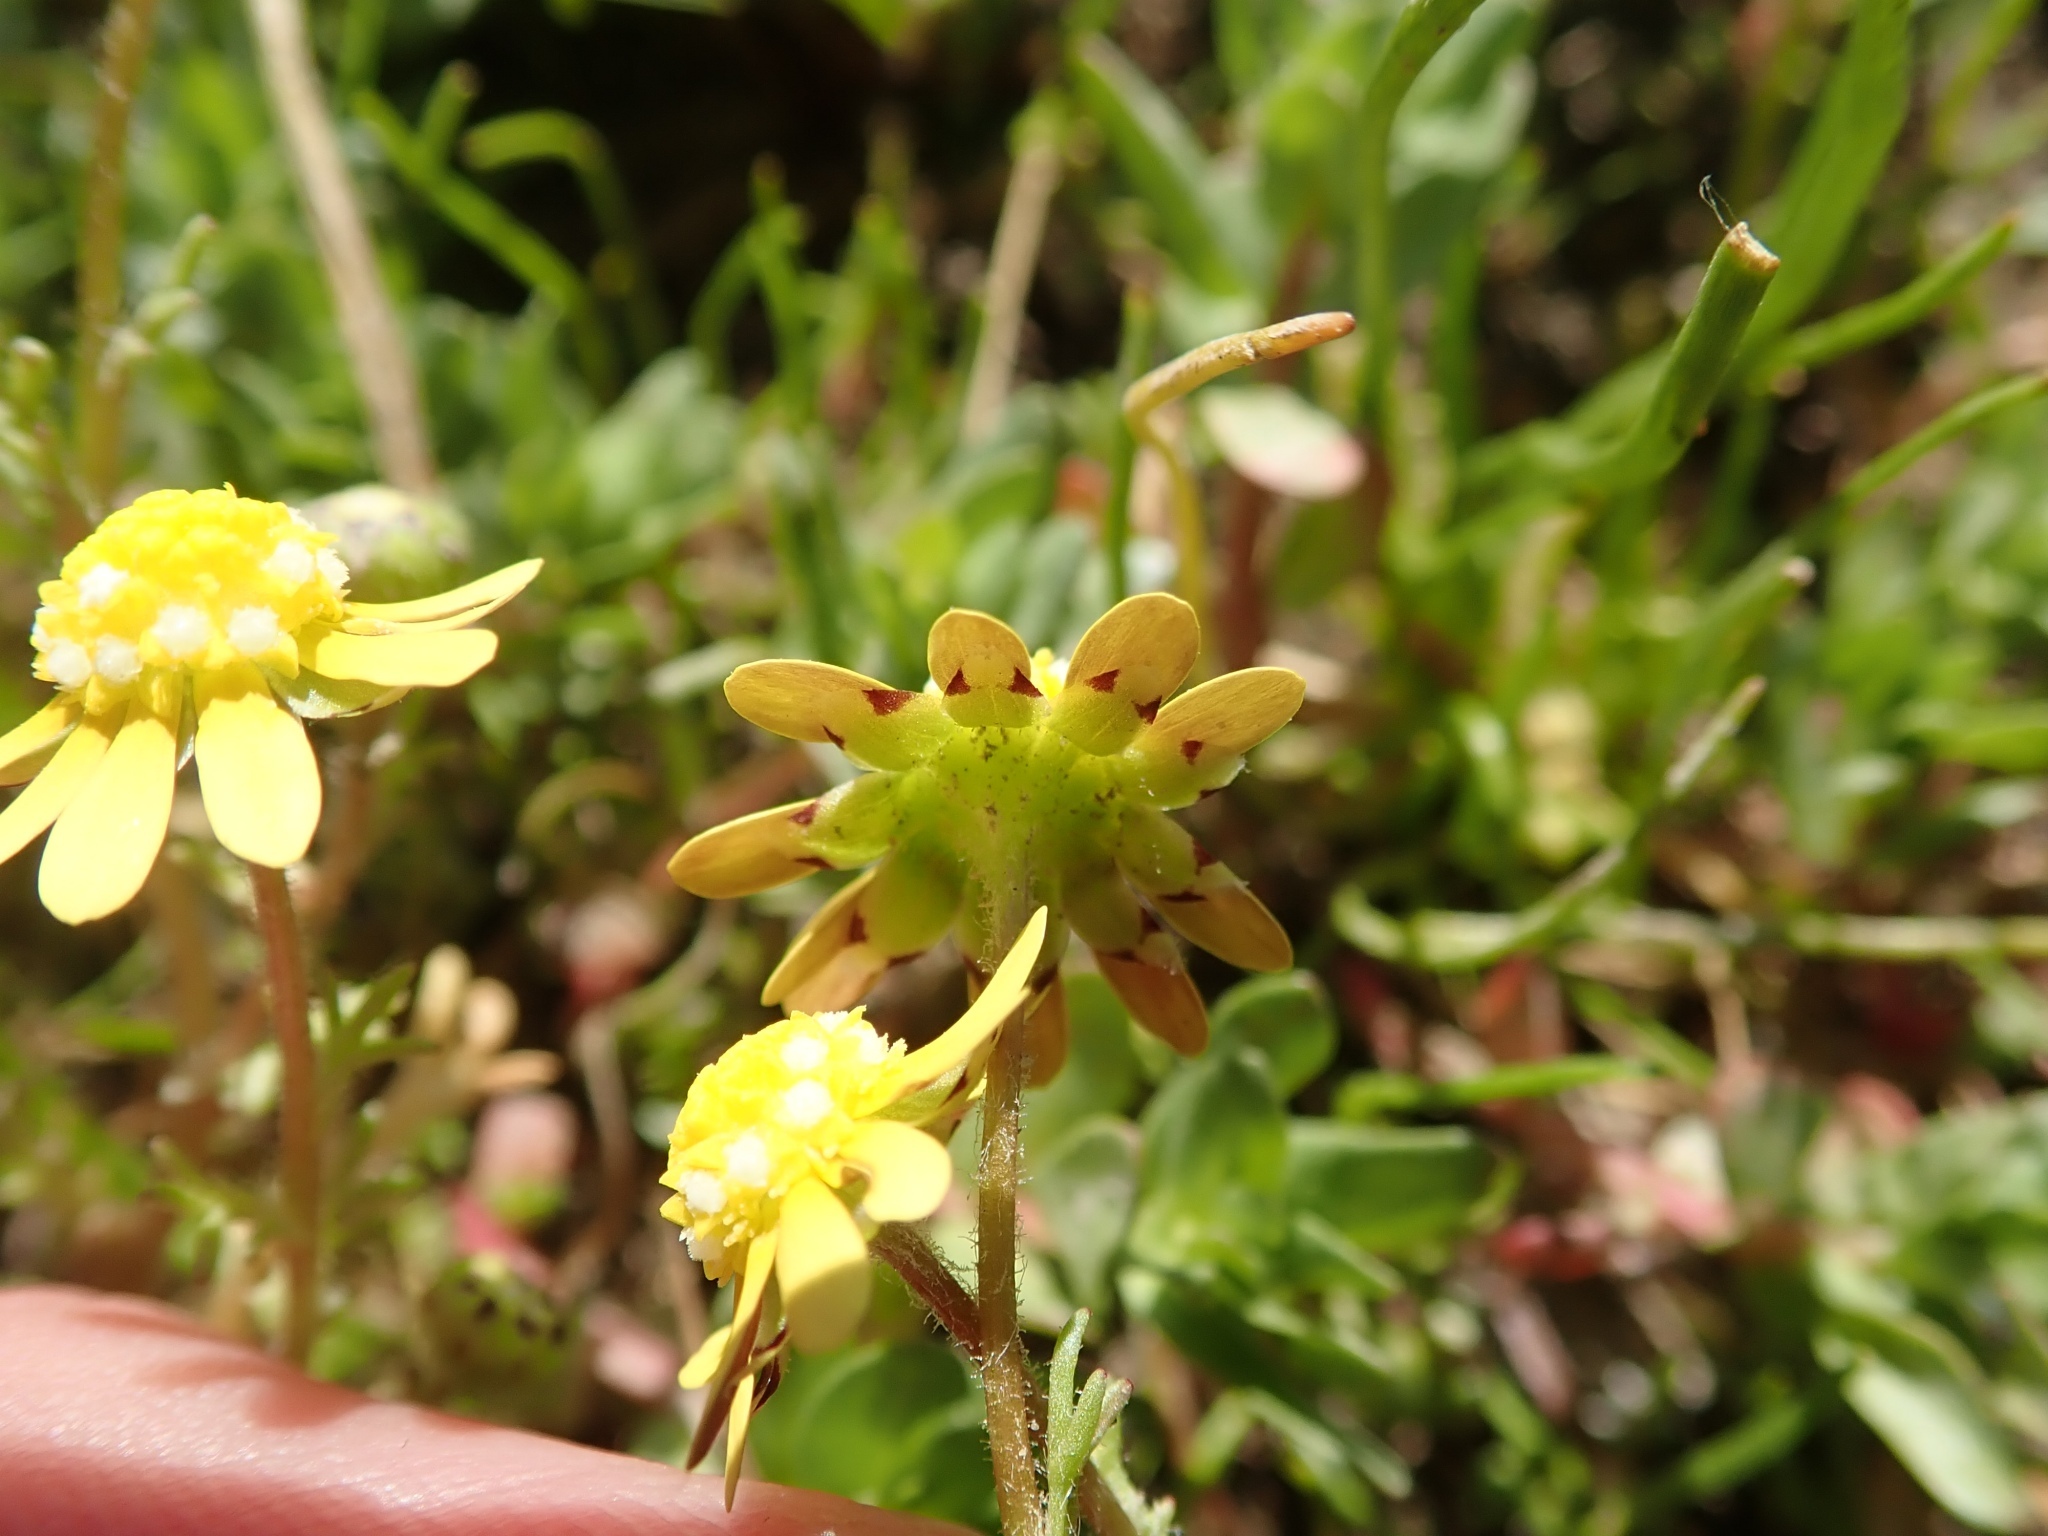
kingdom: Plantae
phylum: Tracheophyta
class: Magnoliopsida
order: Asterales
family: Asteraceae
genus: Blennosperma
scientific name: Blennosperma nanum
